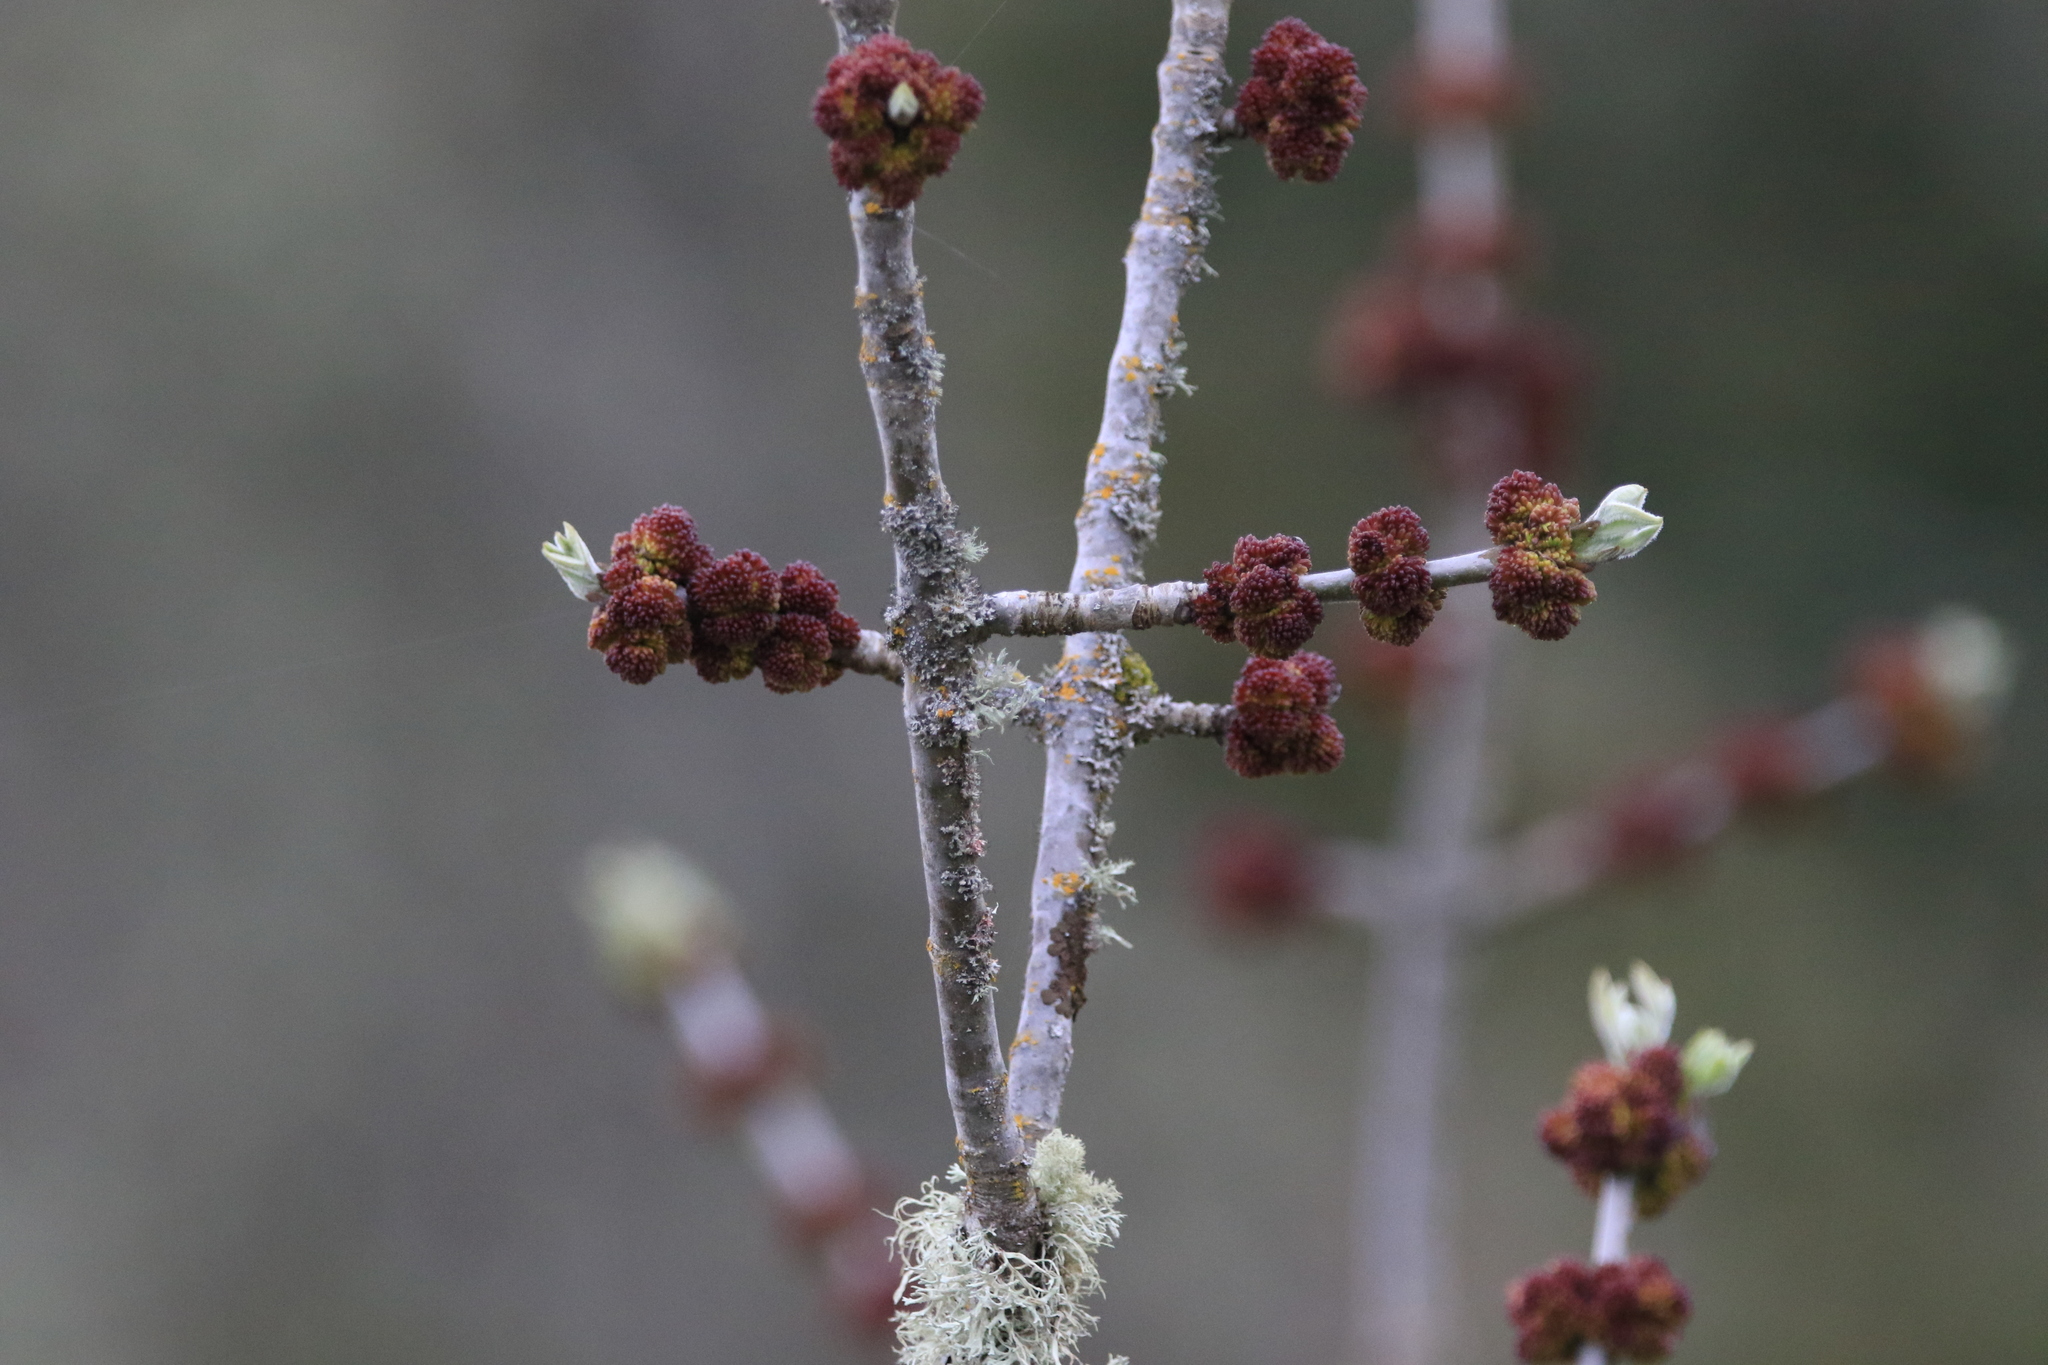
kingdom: Plantae
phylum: Tracheophyta
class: Magnoliopsida
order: Lamiales
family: Oleaceae
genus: Fraxinus
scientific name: Fraxinus latifolia
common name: Oregon ash
